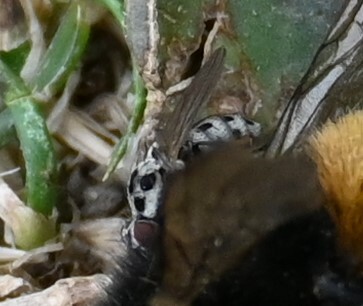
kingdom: Animalia
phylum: Arthropoda
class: Insecta
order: Diptera
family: Anthomyiidae
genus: Anthomyia
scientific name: Anthomyia pluvialis
